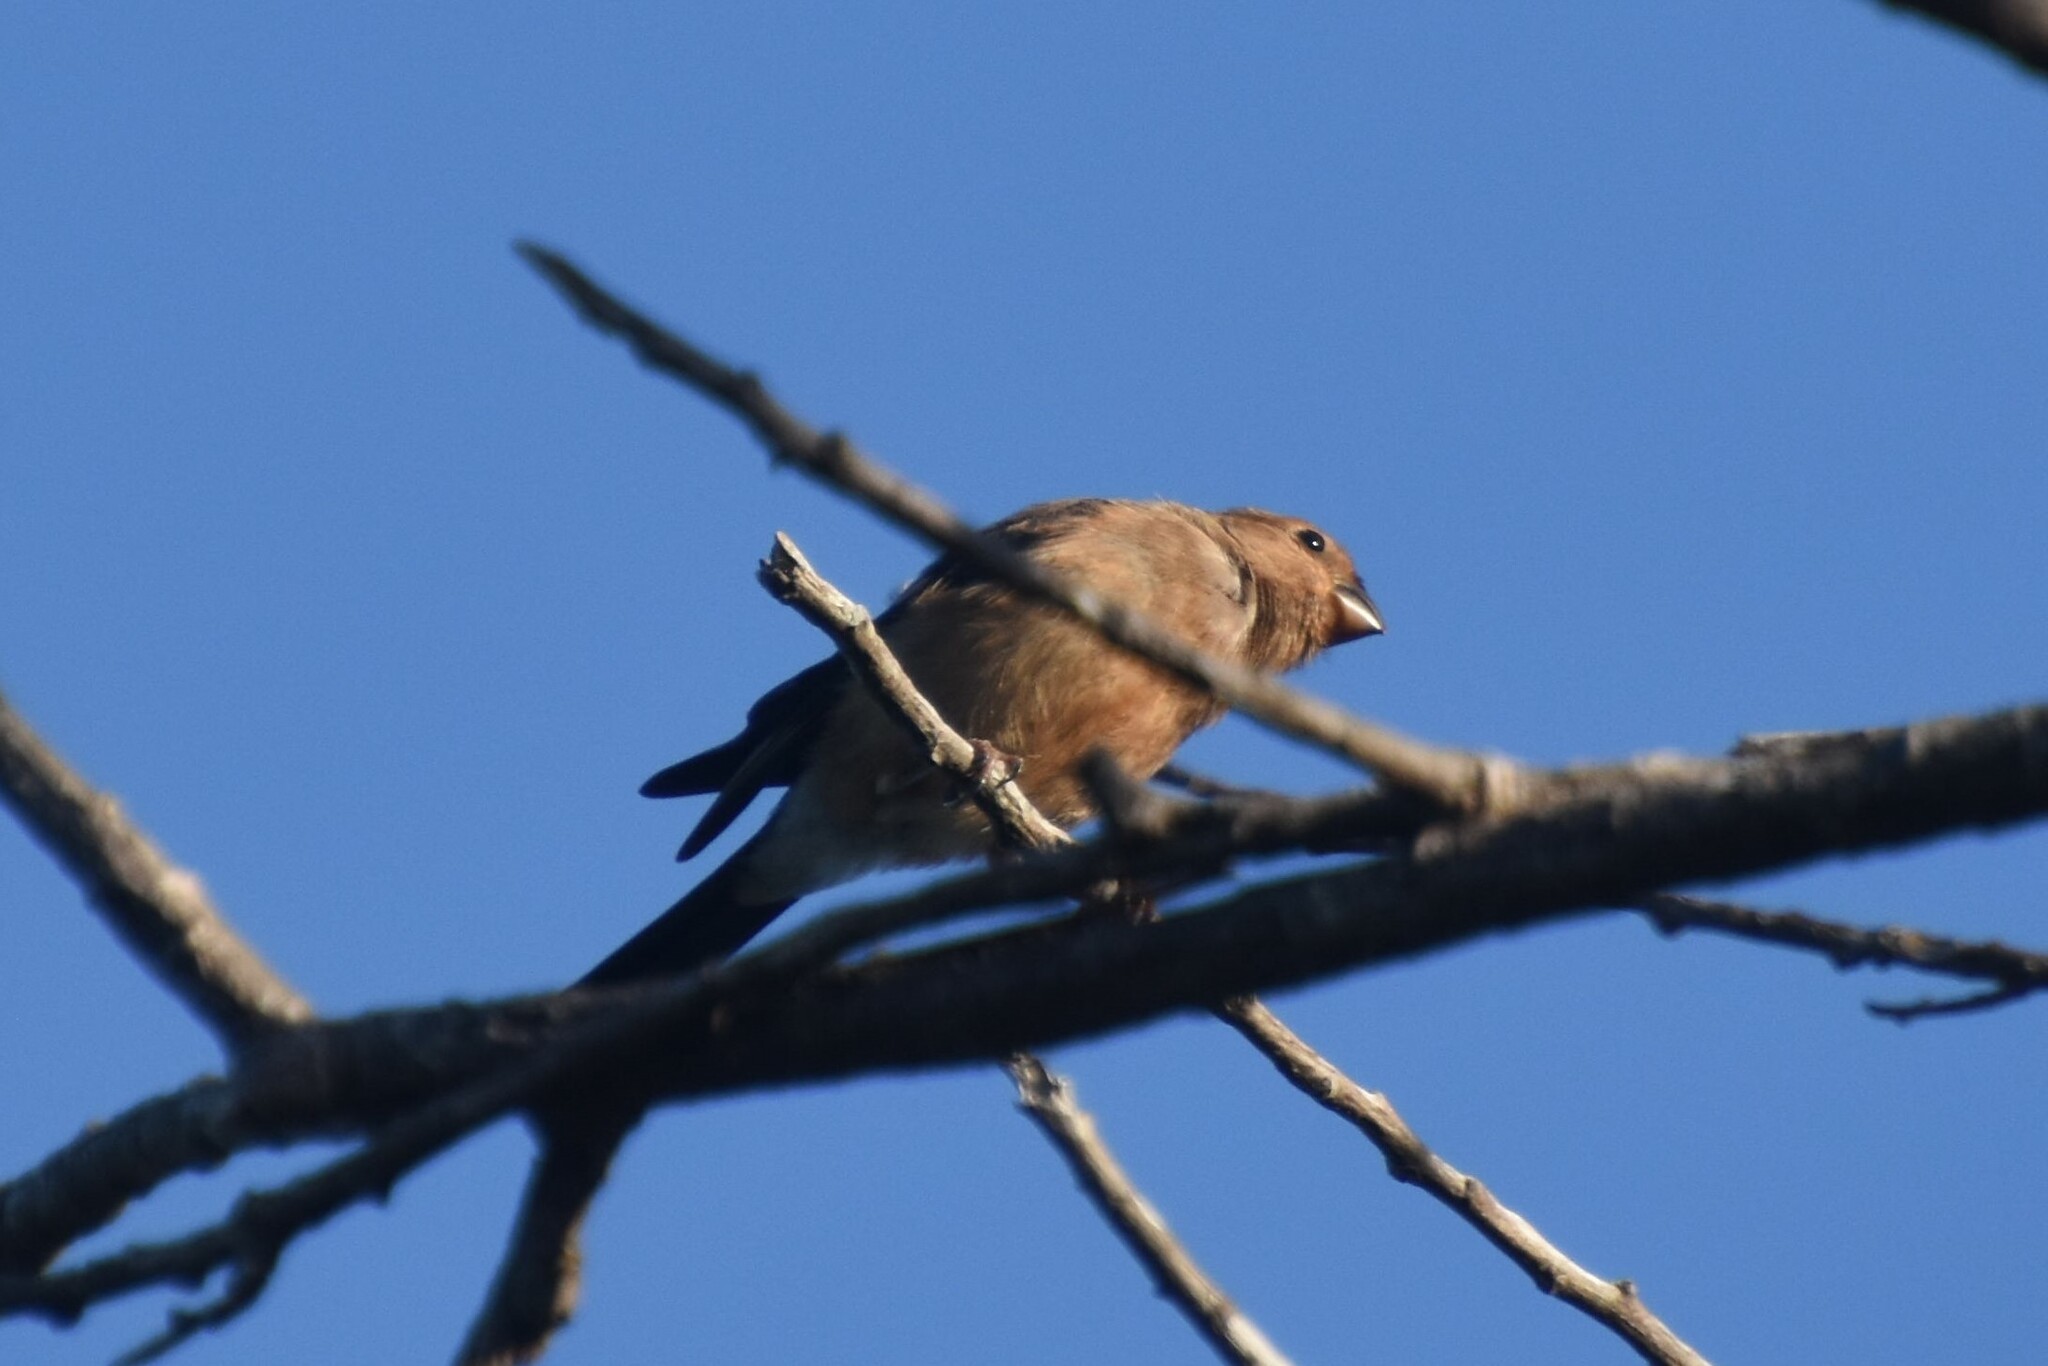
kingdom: Animalia
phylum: Chordata
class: Aves
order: Passeriformes
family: Fringillidae
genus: Pyrrhula
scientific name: Pyrrhula pyrrhula
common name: Eurasian bullfinch
